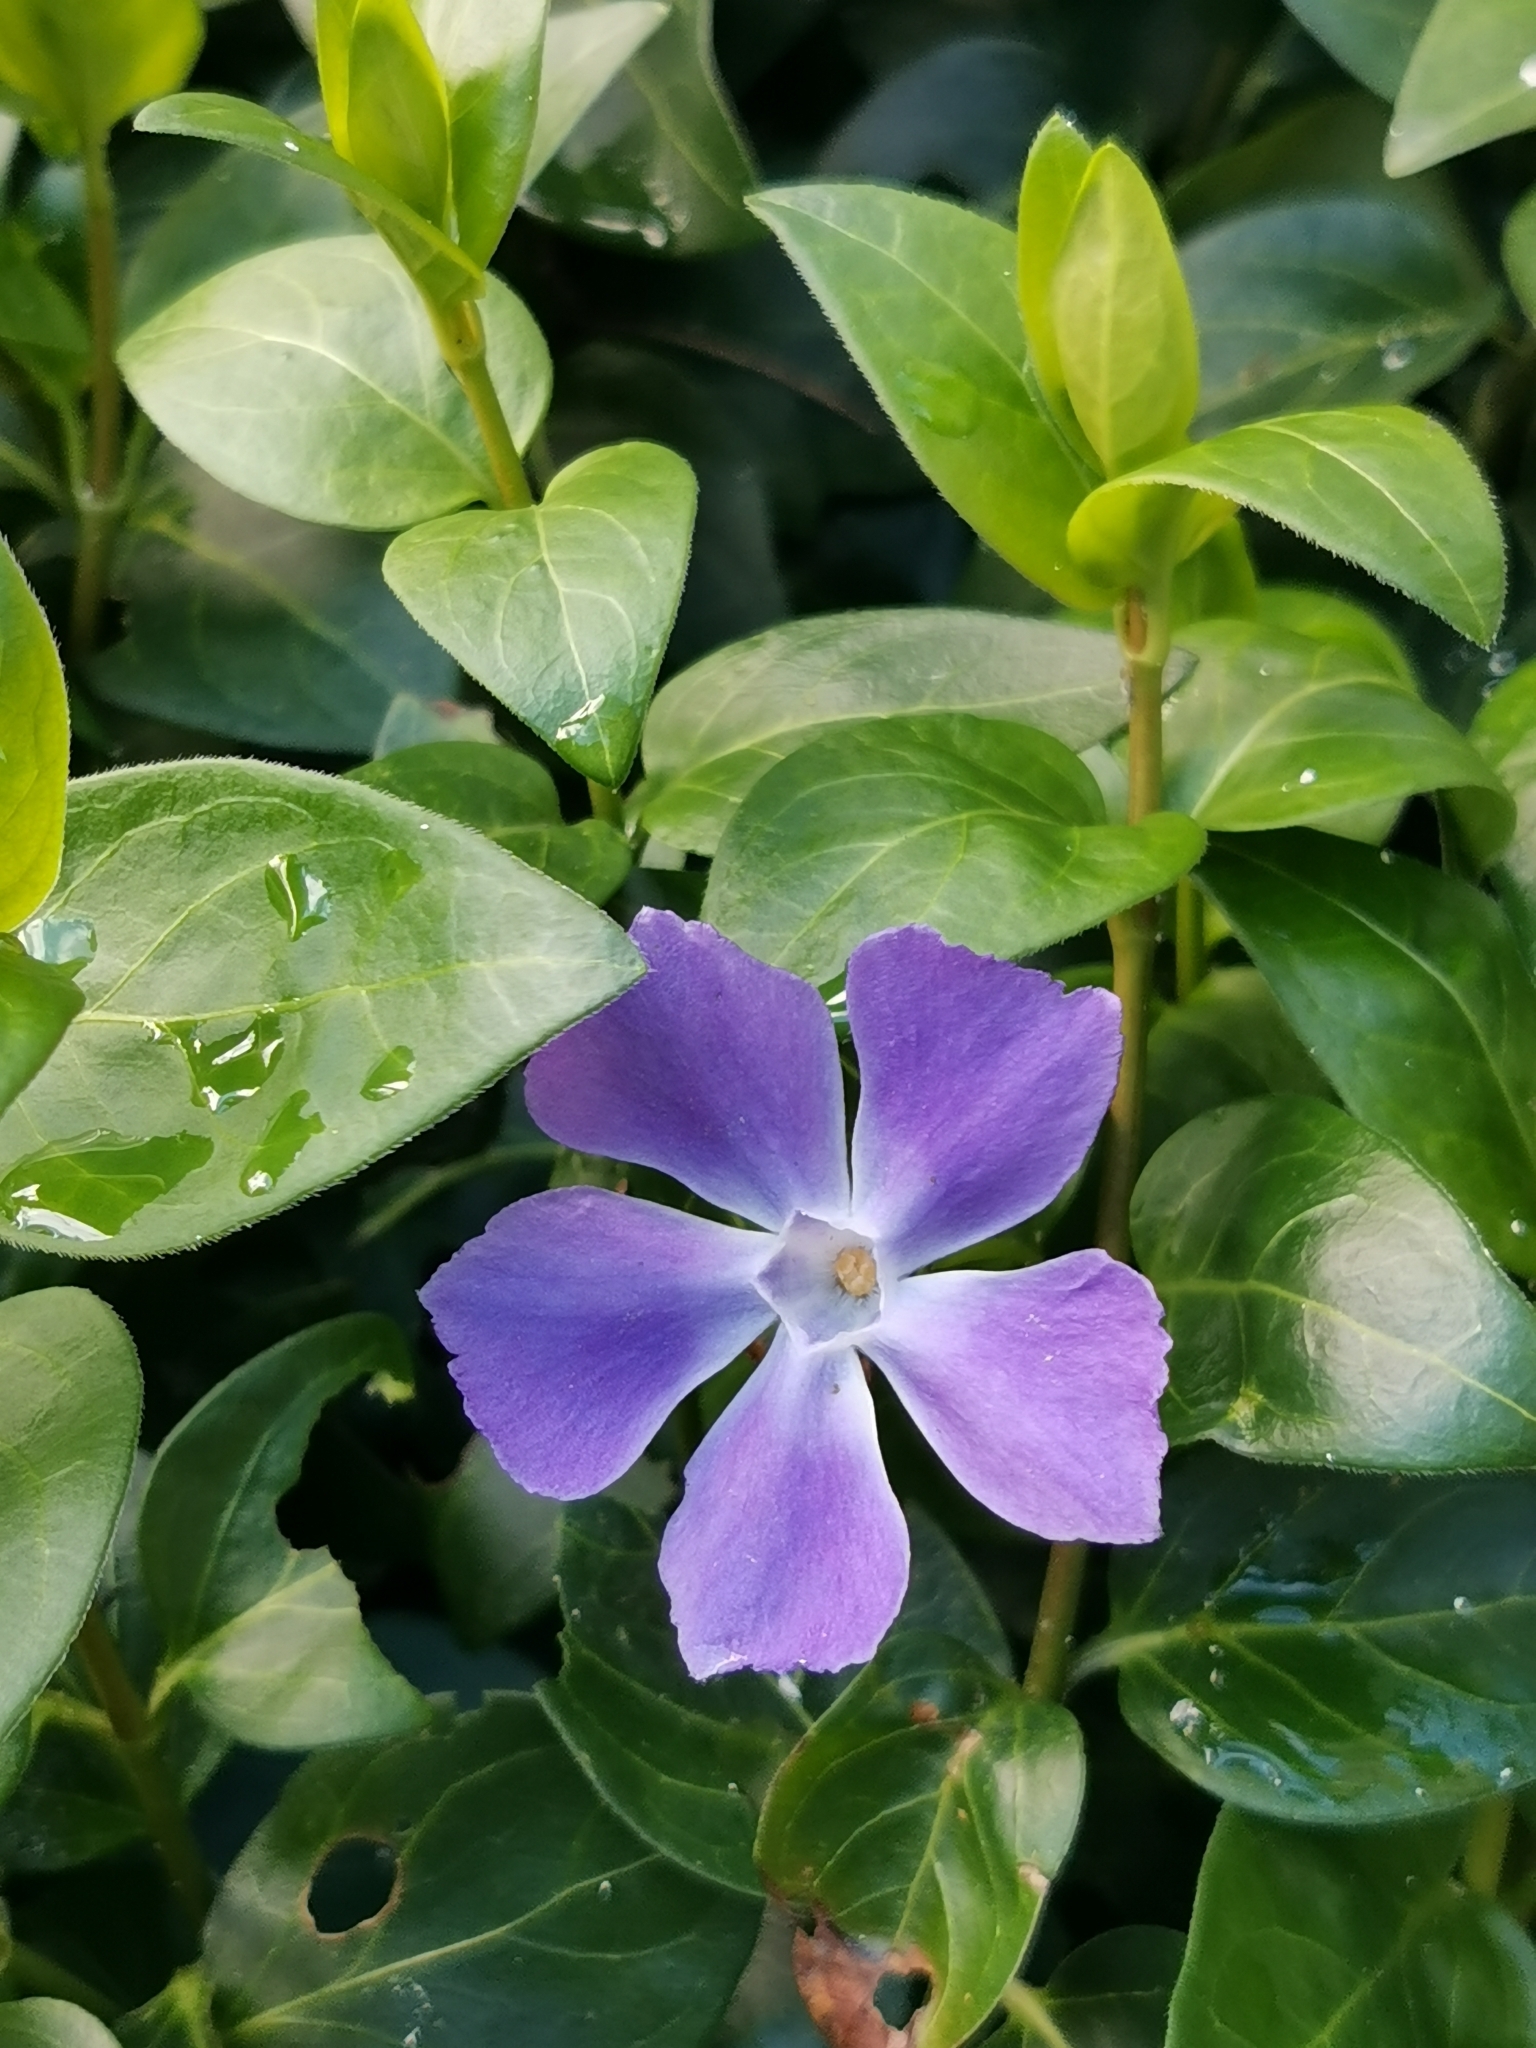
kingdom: Plantae
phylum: Tracheophyta
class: Magnoliopsida
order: Gentianales
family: Apocynaceae
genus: Vinca
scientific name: Vinca major
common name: Greater periwinkle
